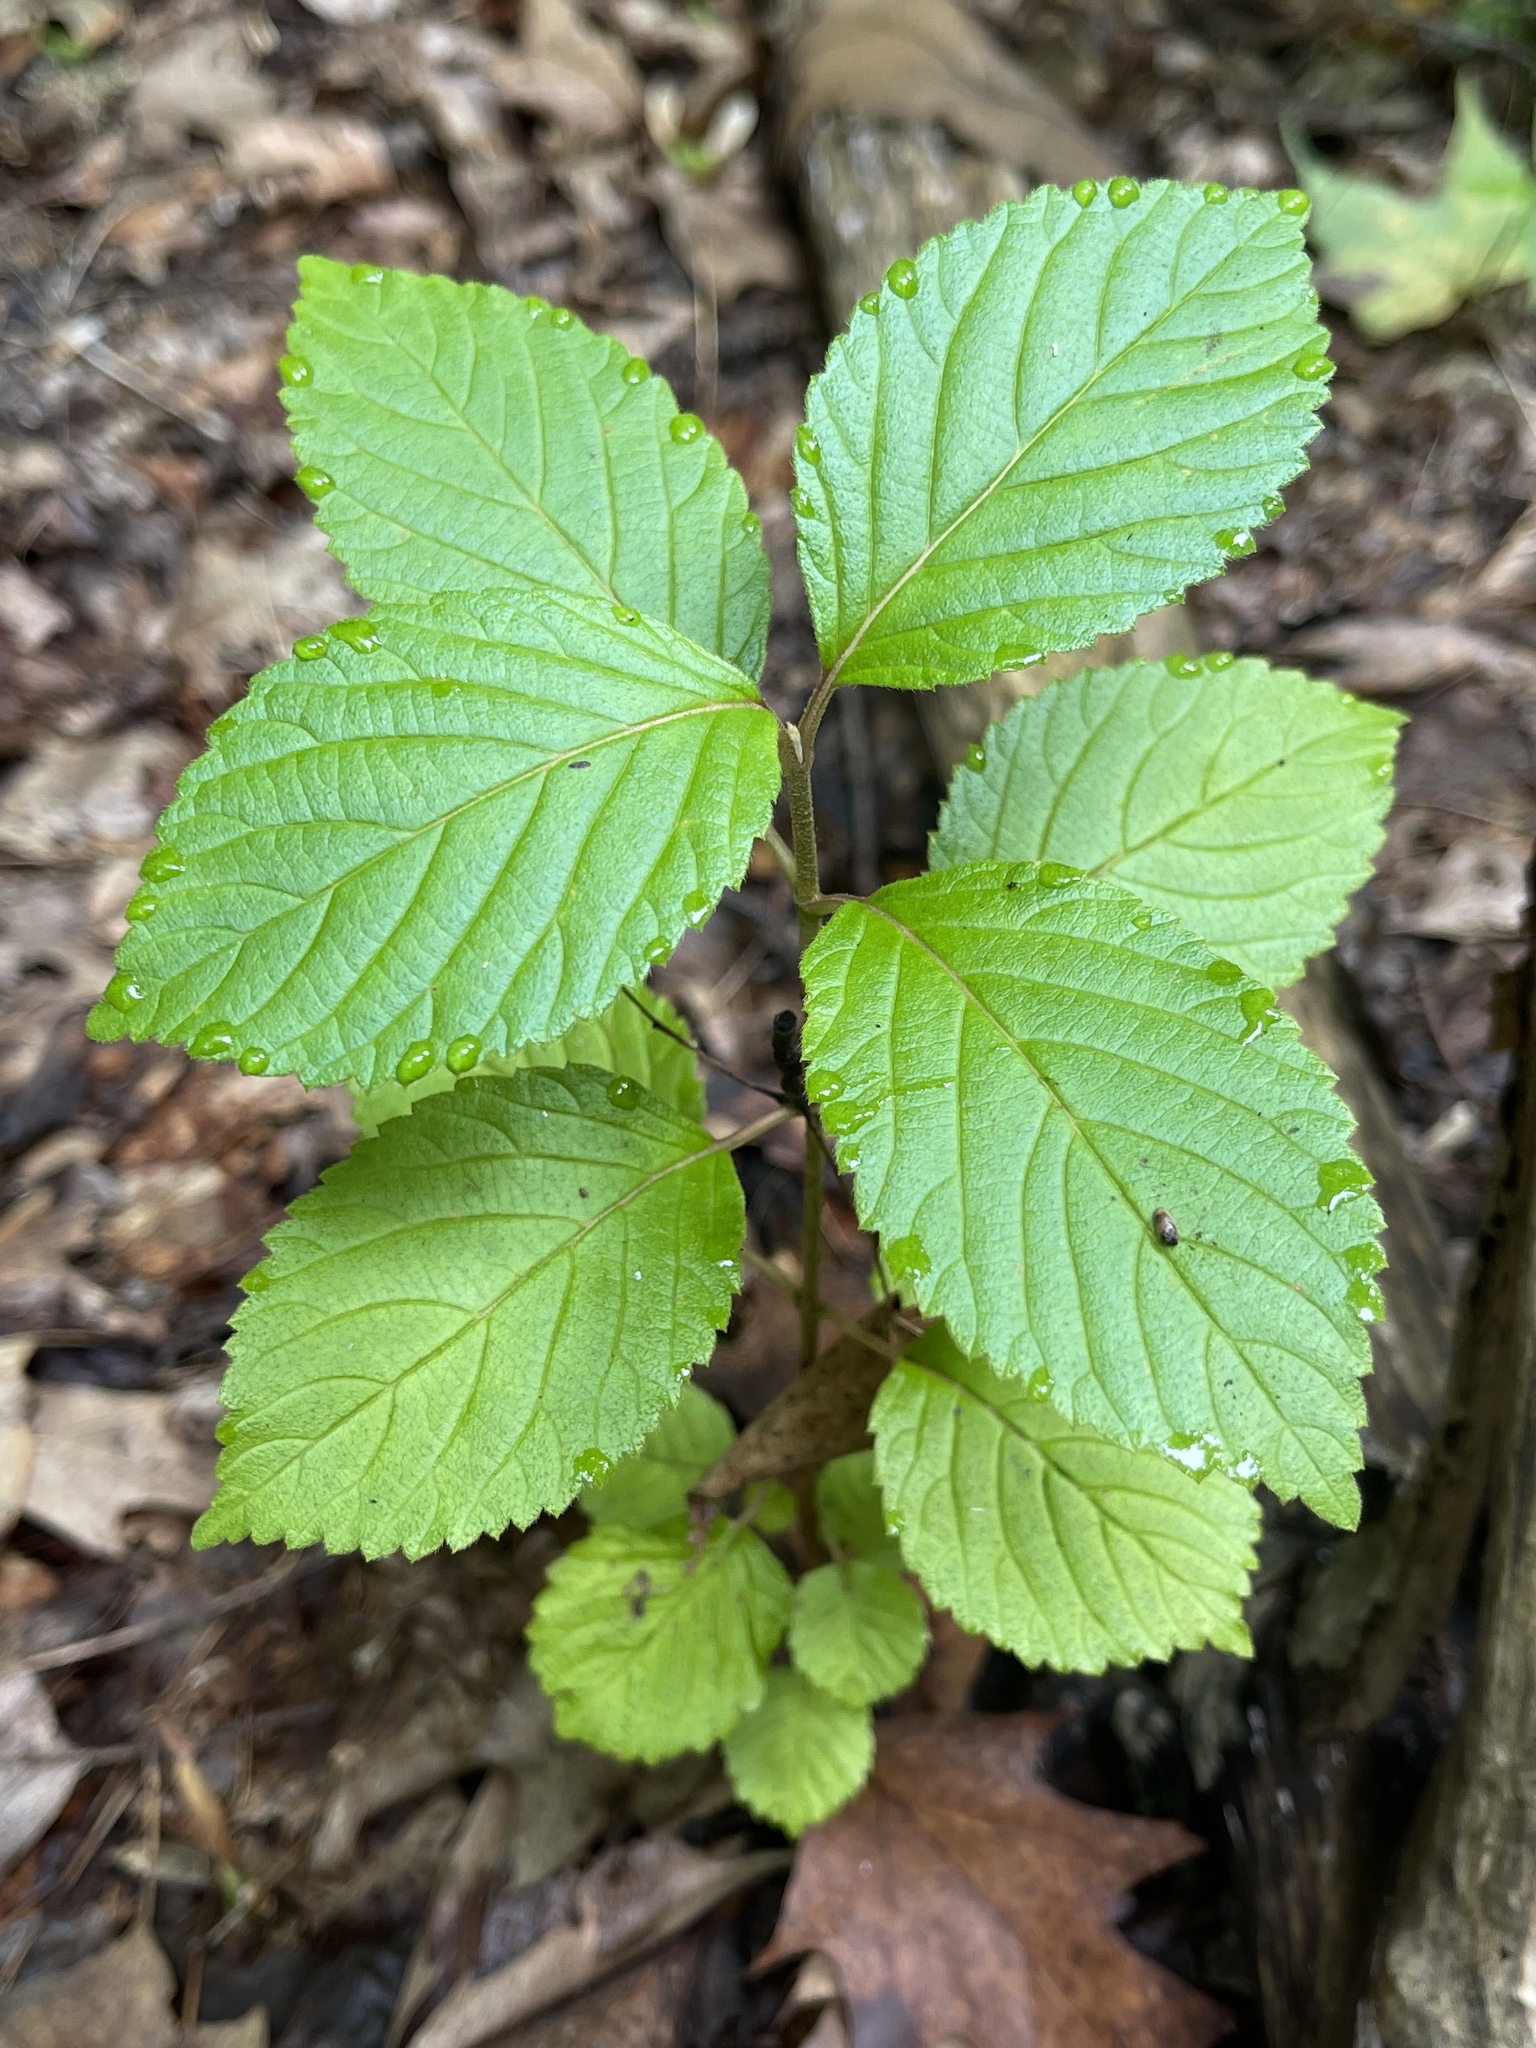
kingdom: Plantae
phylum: Tracheophyta
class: Magnoliopsida
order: Dipsacales
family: Viburnaceae
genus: Viburnum
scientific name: Viburnum plicatum
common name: Japanese snowball
